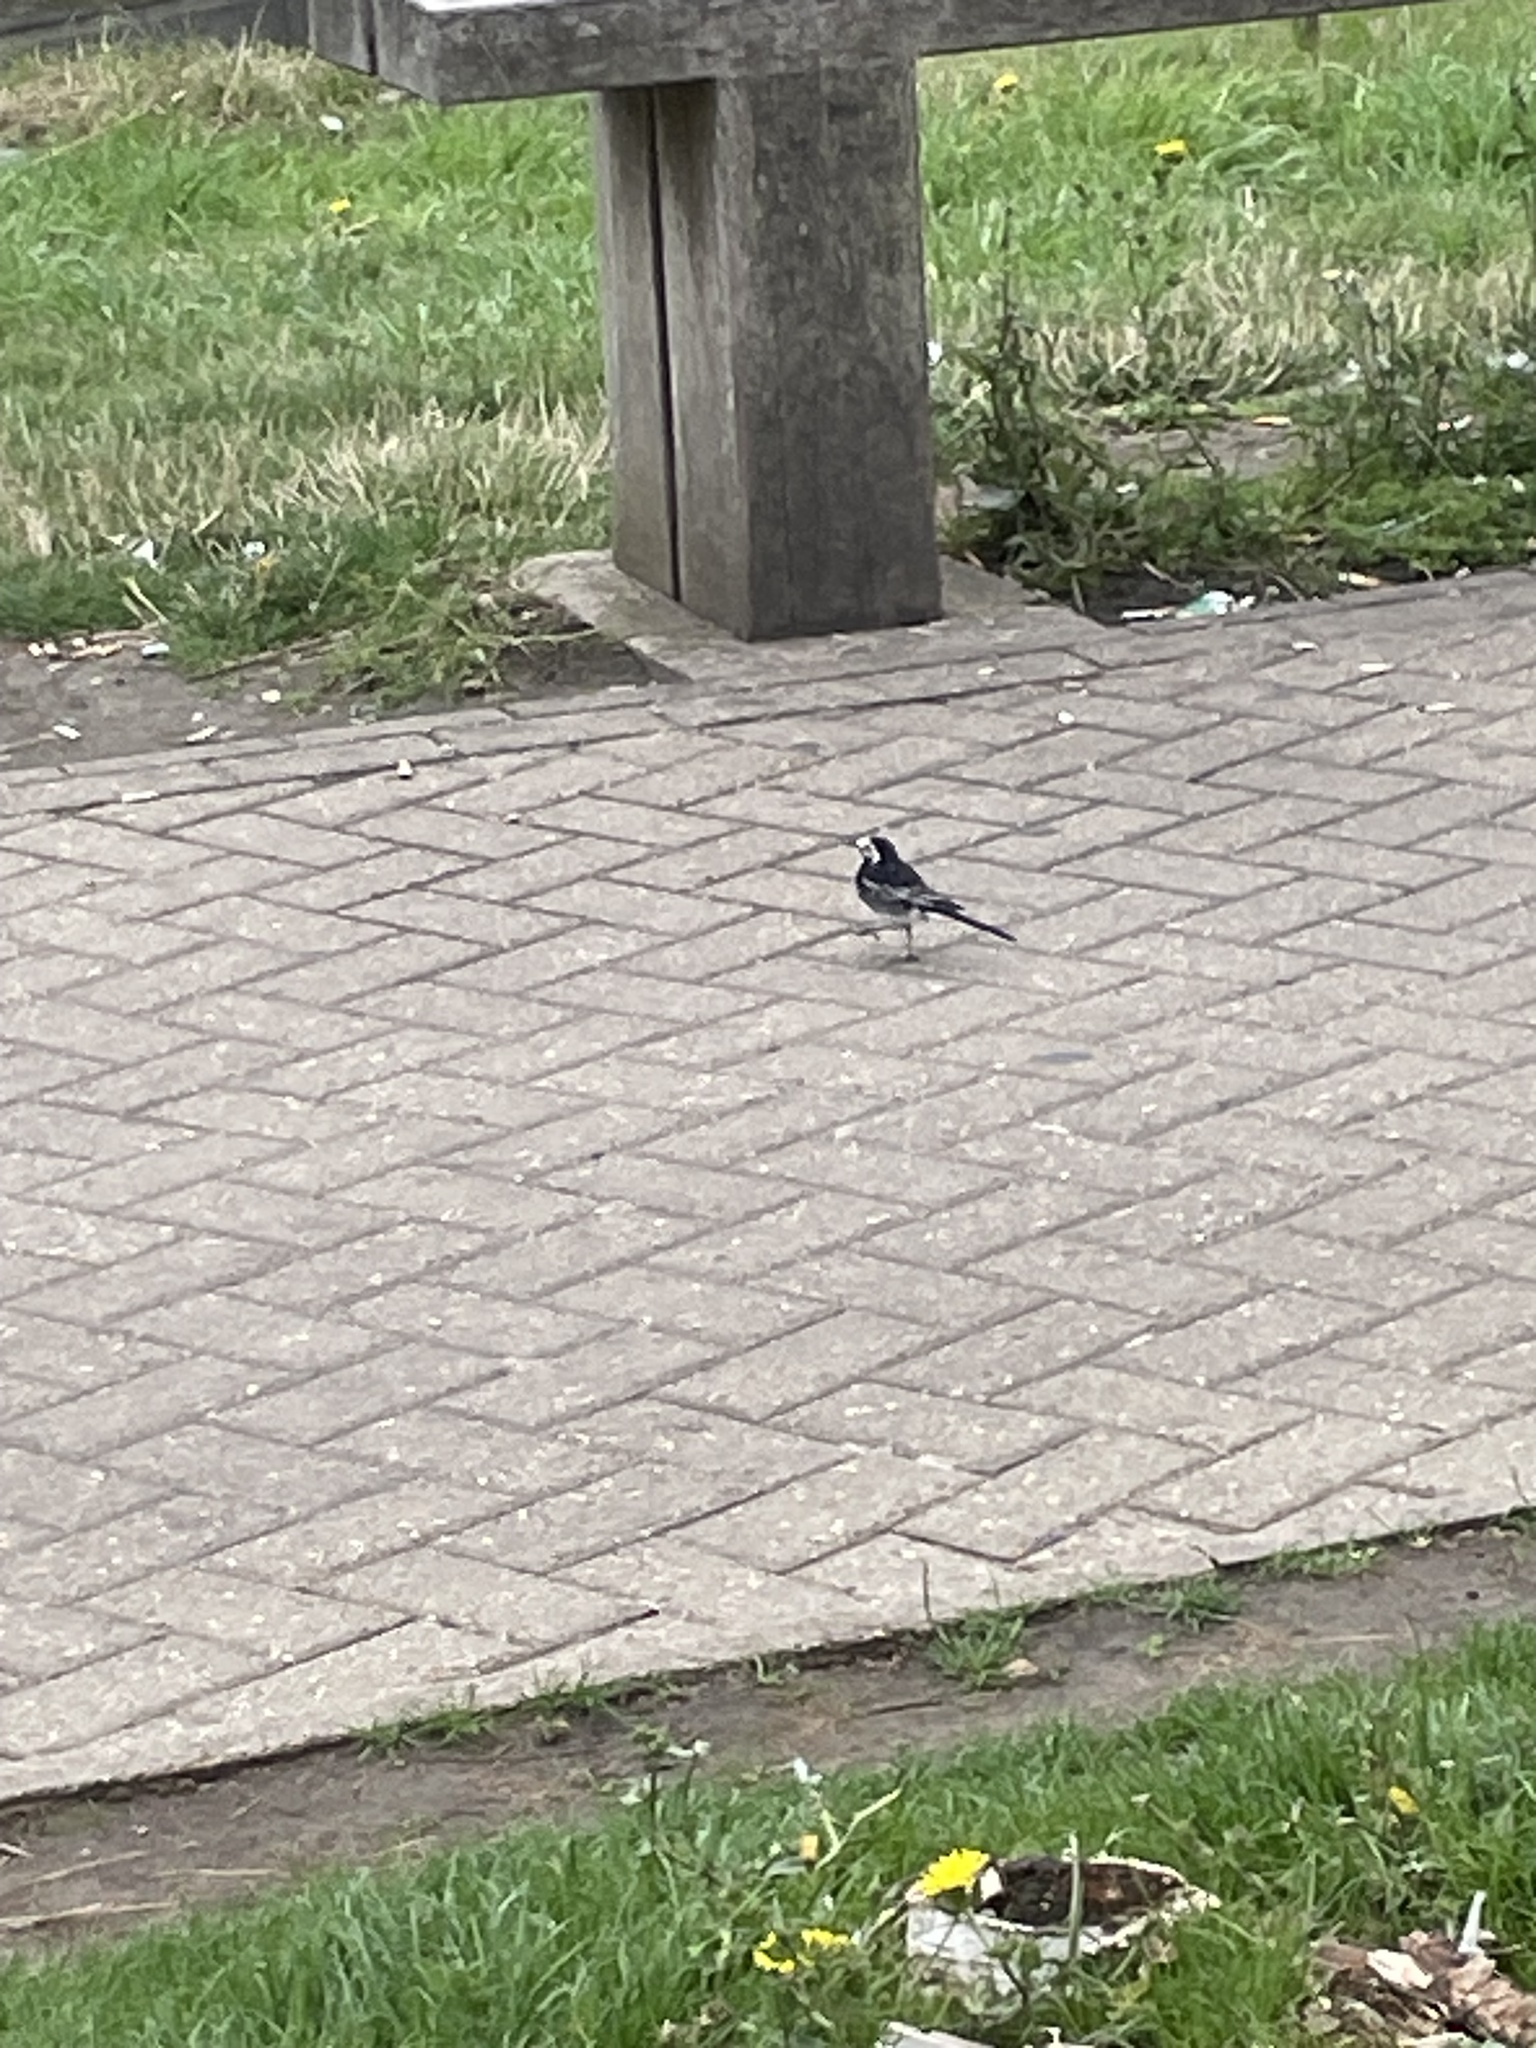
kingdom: Animalia
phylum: Chordata
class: Aves
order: Passeriformes
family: Motacillidae
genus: Motacilla
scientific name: Motacilla alba
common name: White wagtail
